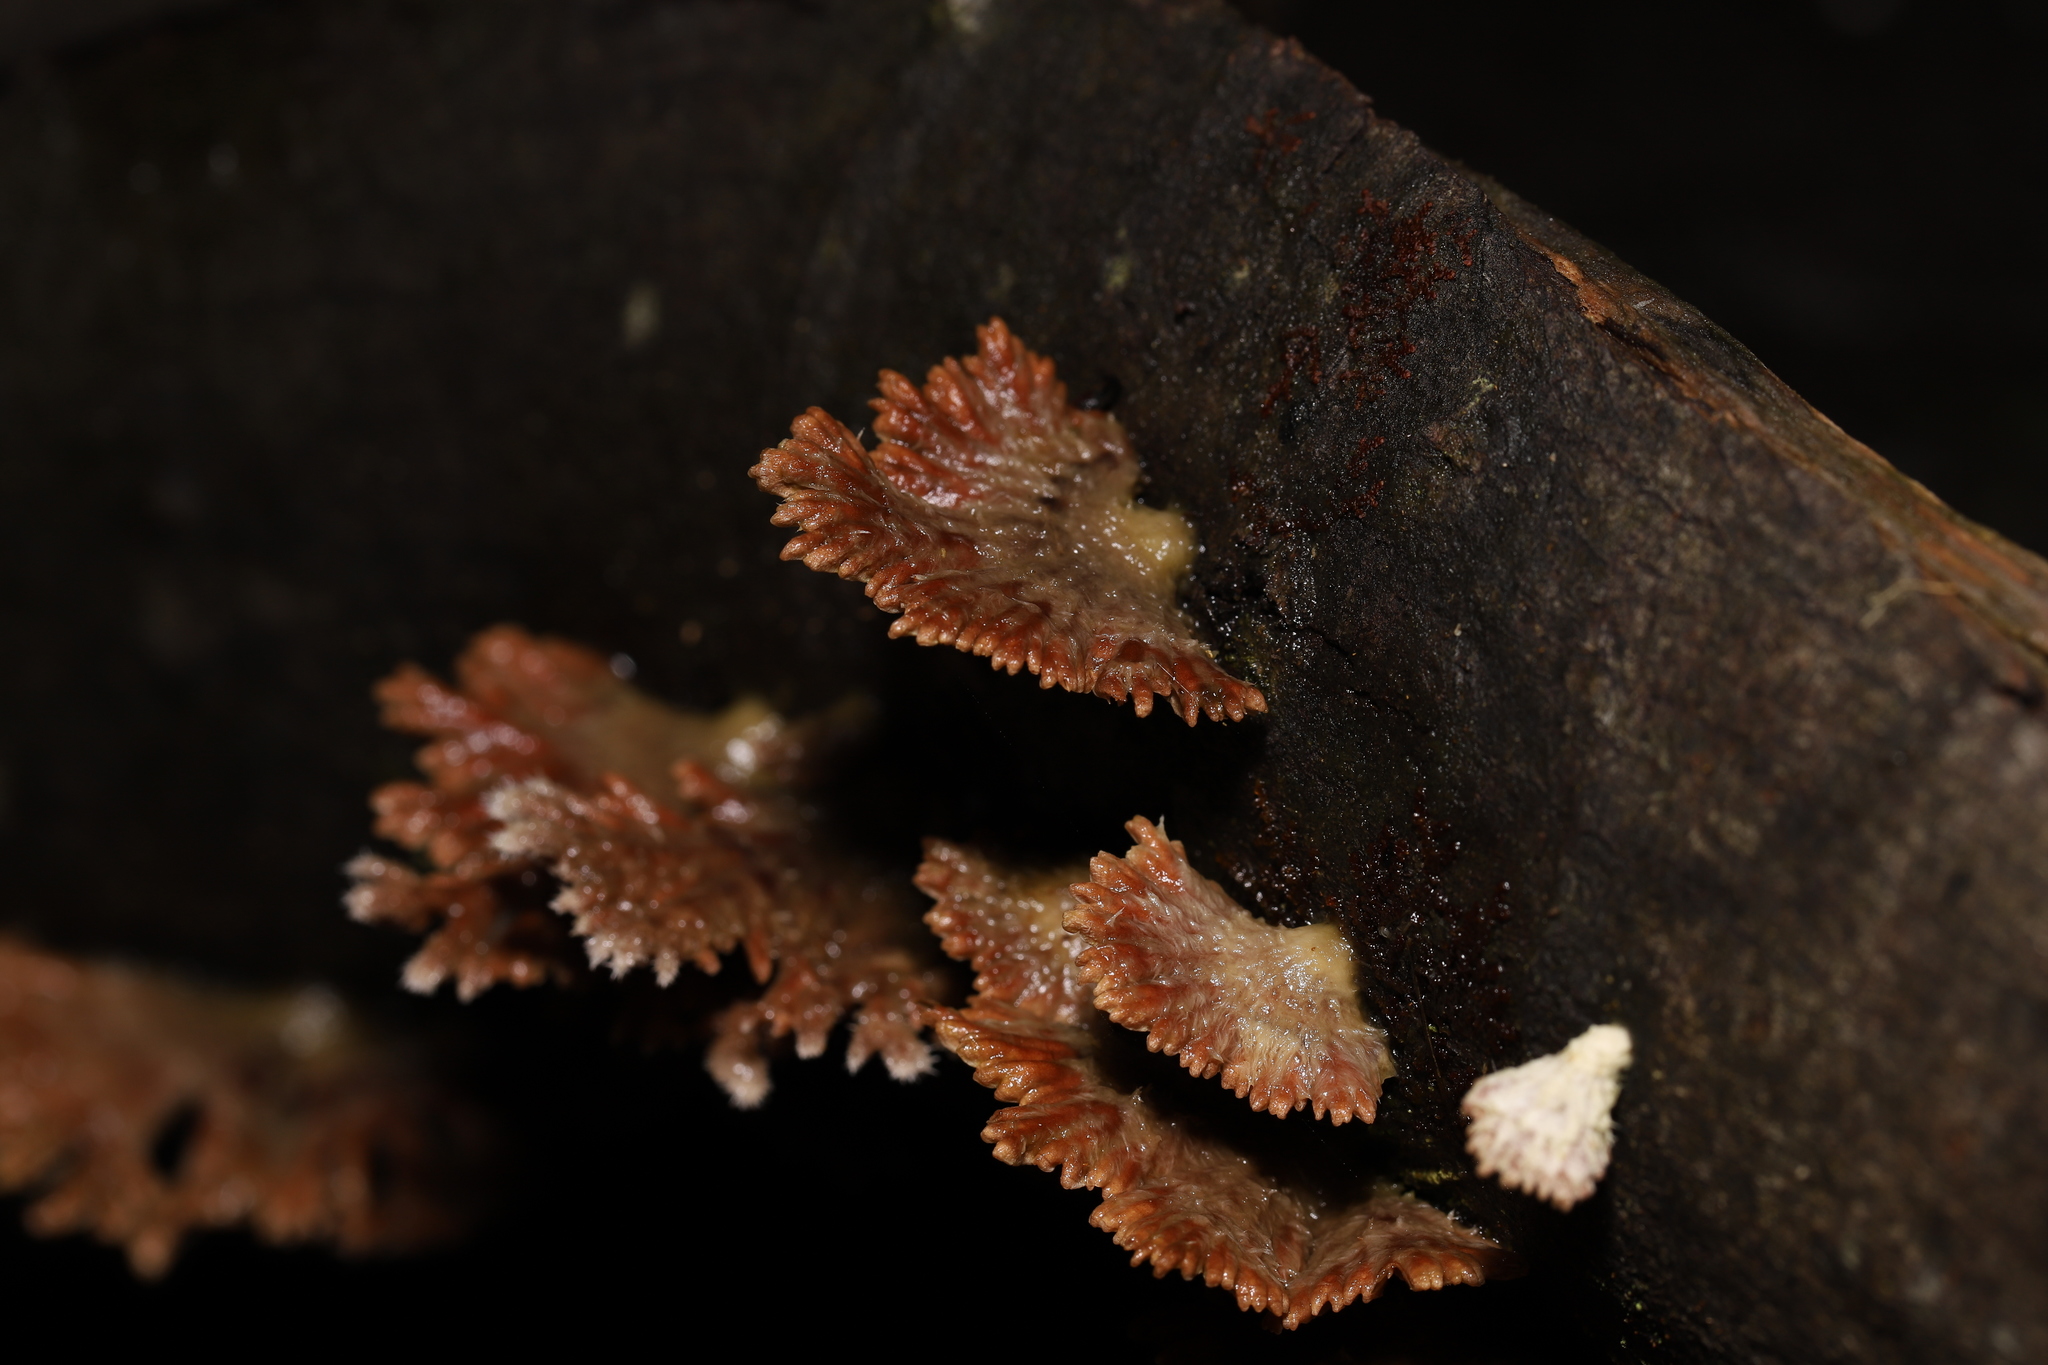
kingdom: Fungi
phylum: Basidiomycota
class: Agaricomycetes
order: Agaricales
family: Schizophyllaceae
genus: Schizophyllum
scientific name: Schizophyllum commune
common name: Common porecrust
